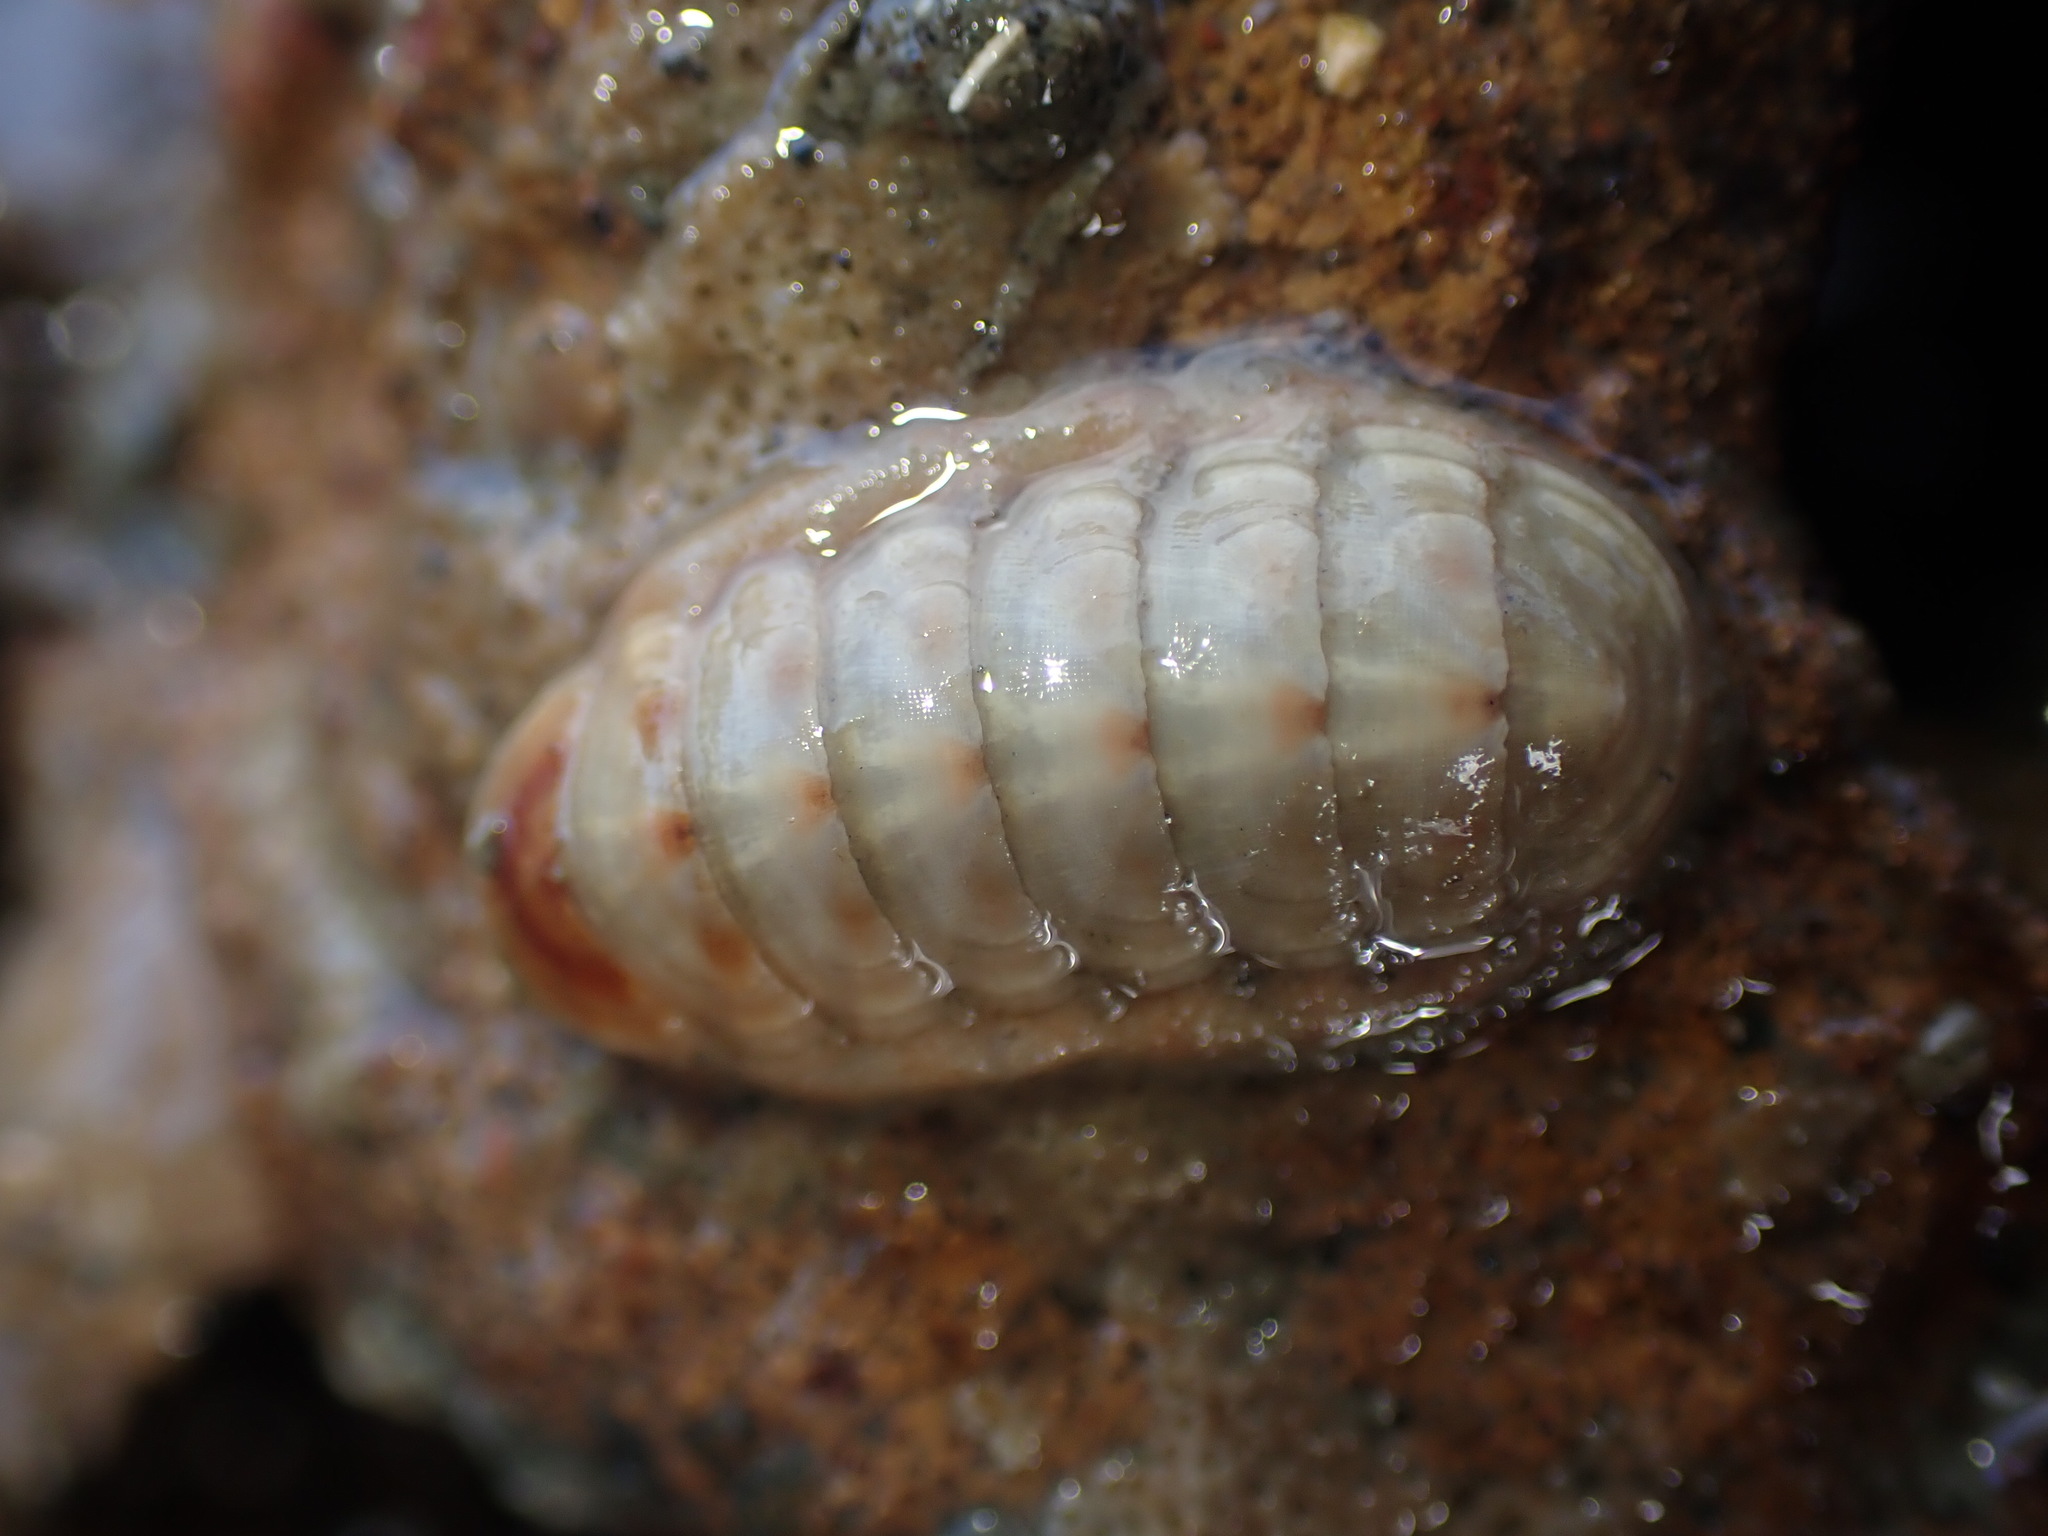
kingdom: Animalia
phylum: Mollusca
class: Polyplacophora
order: Lepidopleurida
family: Leptochitonidae
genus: Leptochiton
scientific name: Leptochiton inquinatus
